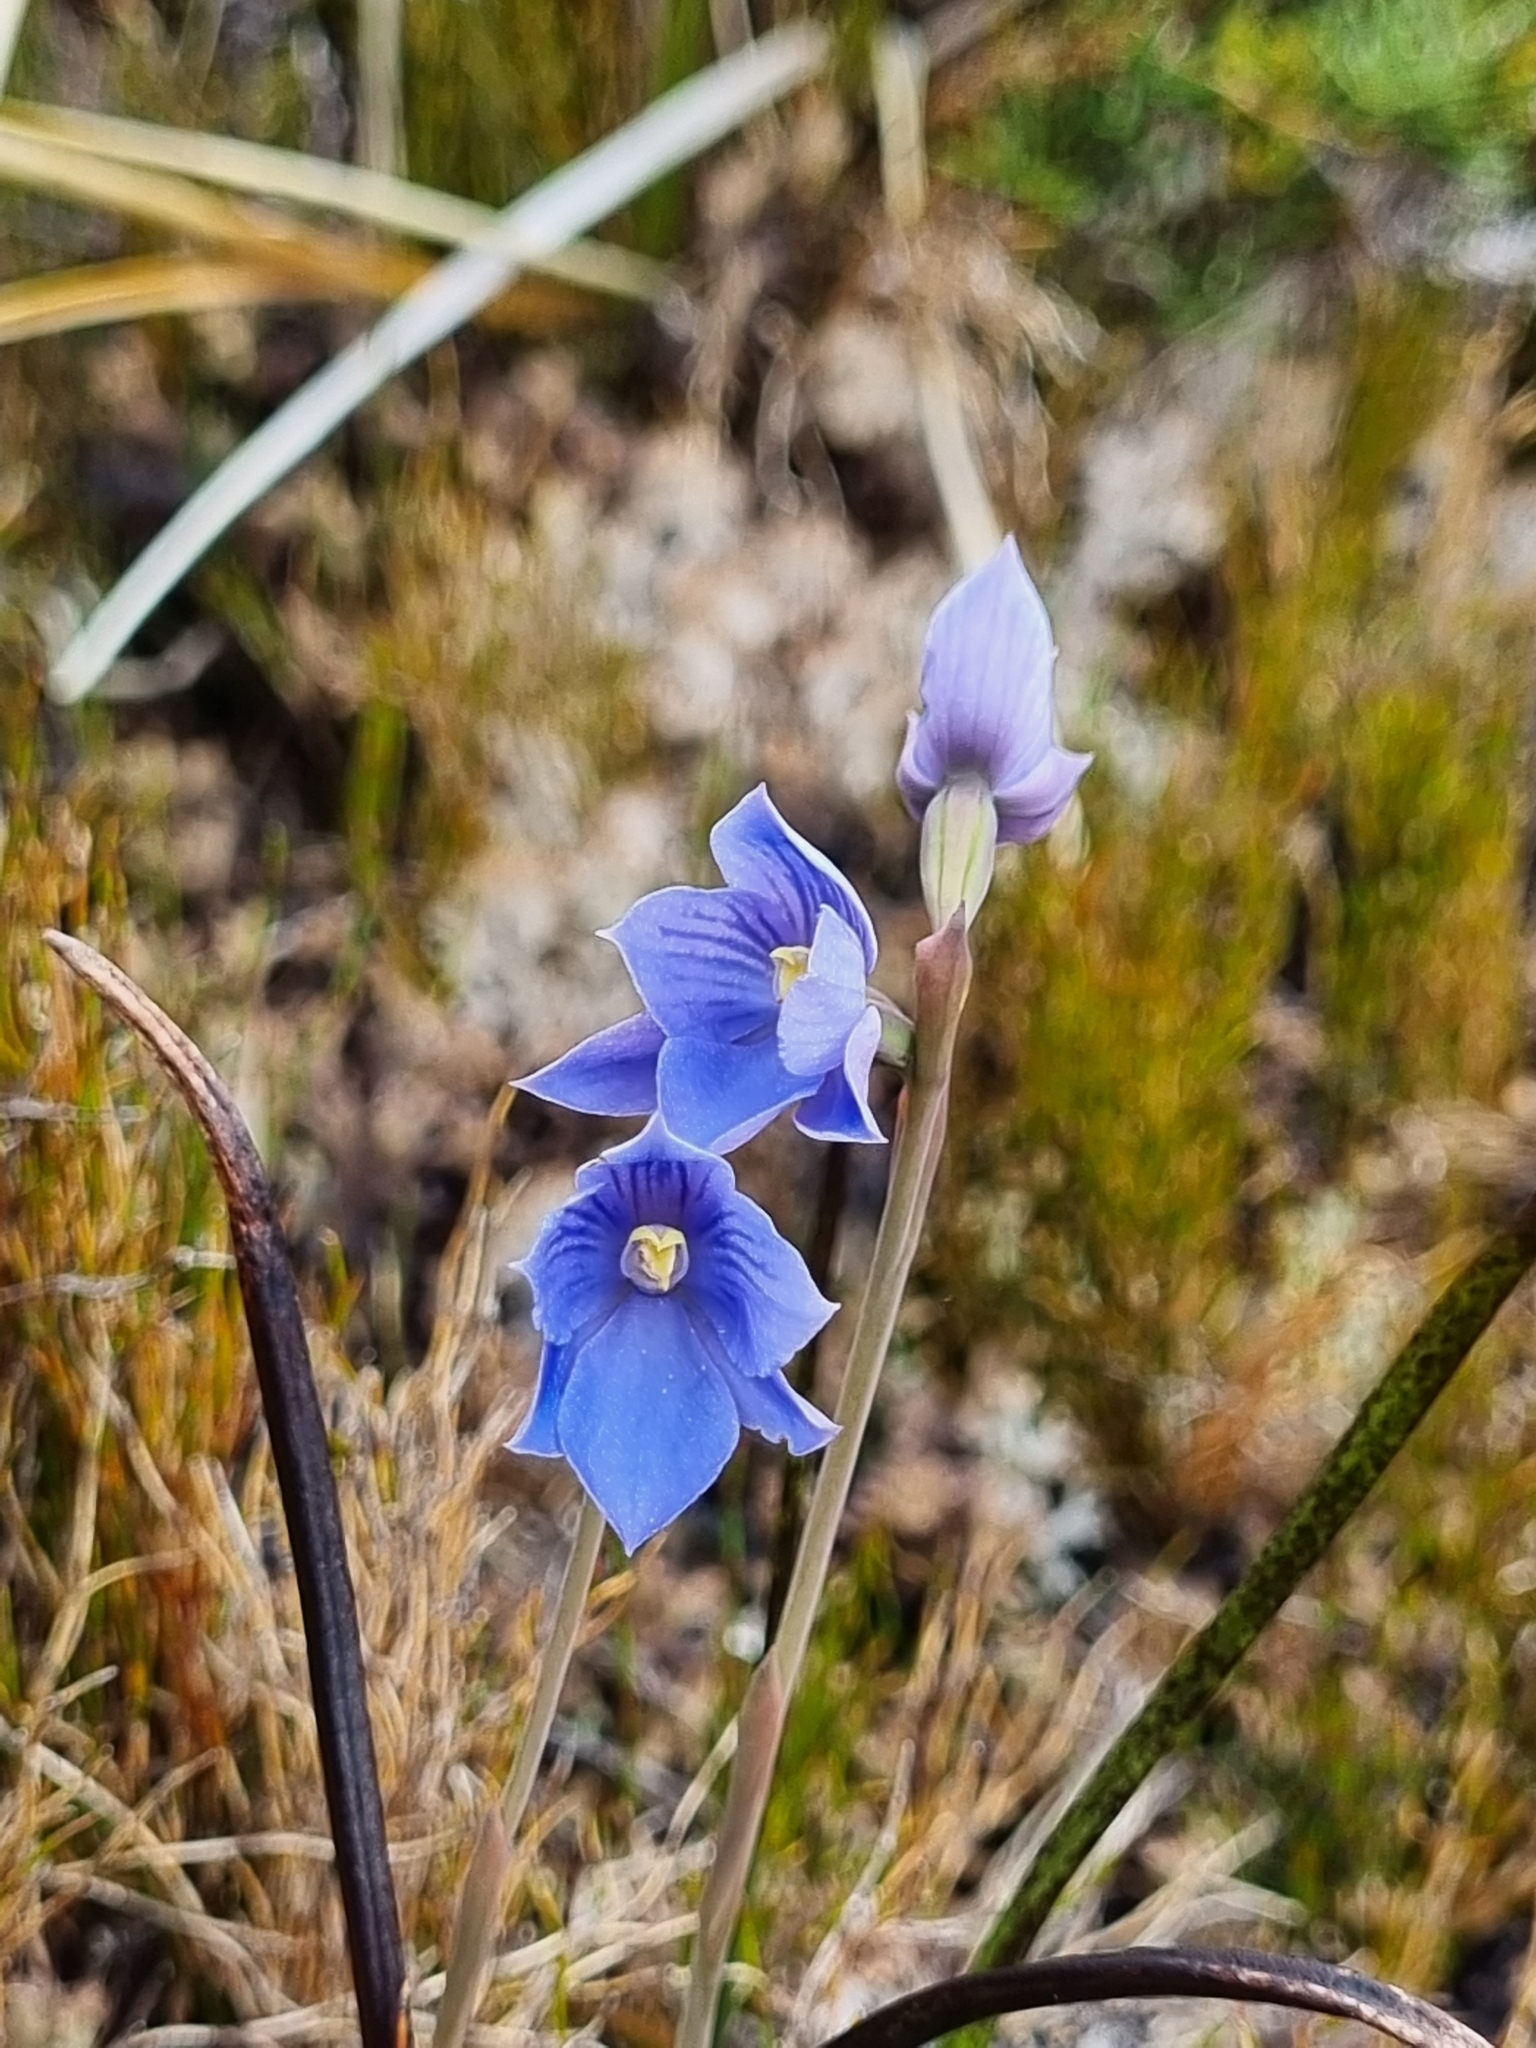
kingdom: Plantae
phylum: Tracheophyta
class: Liliopsida
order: Asparagales
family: Orchidaceae
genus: Thelymitra
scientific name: Thelymitra cyanea
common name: Blue sun-orchid
